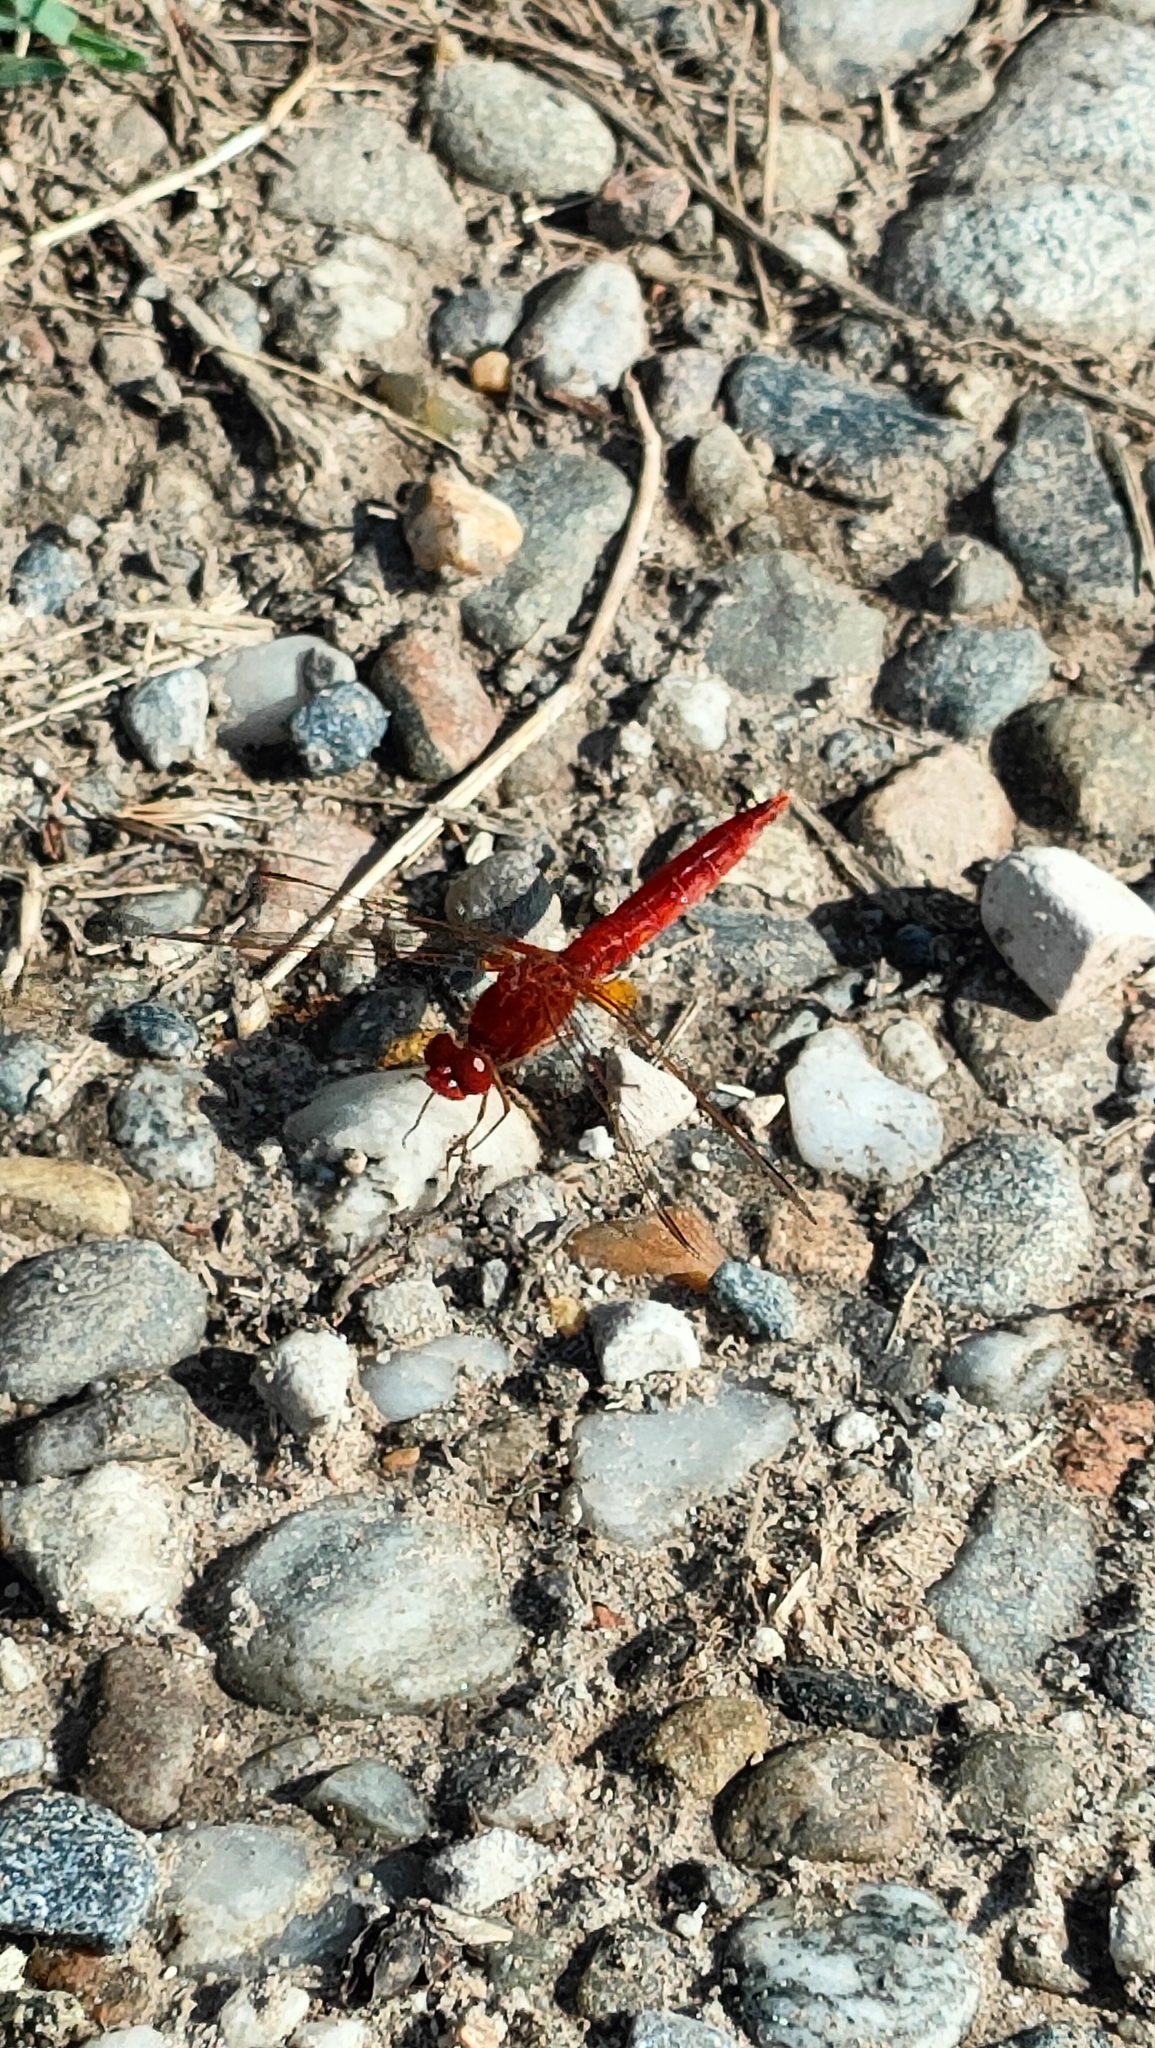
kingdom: Animalia
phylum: Arthropoda
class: Insecta
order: Odonata
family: Libellulidae
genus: Crocothemis
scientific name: Crocothemis erythraea
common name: Scarlet dragonfly
